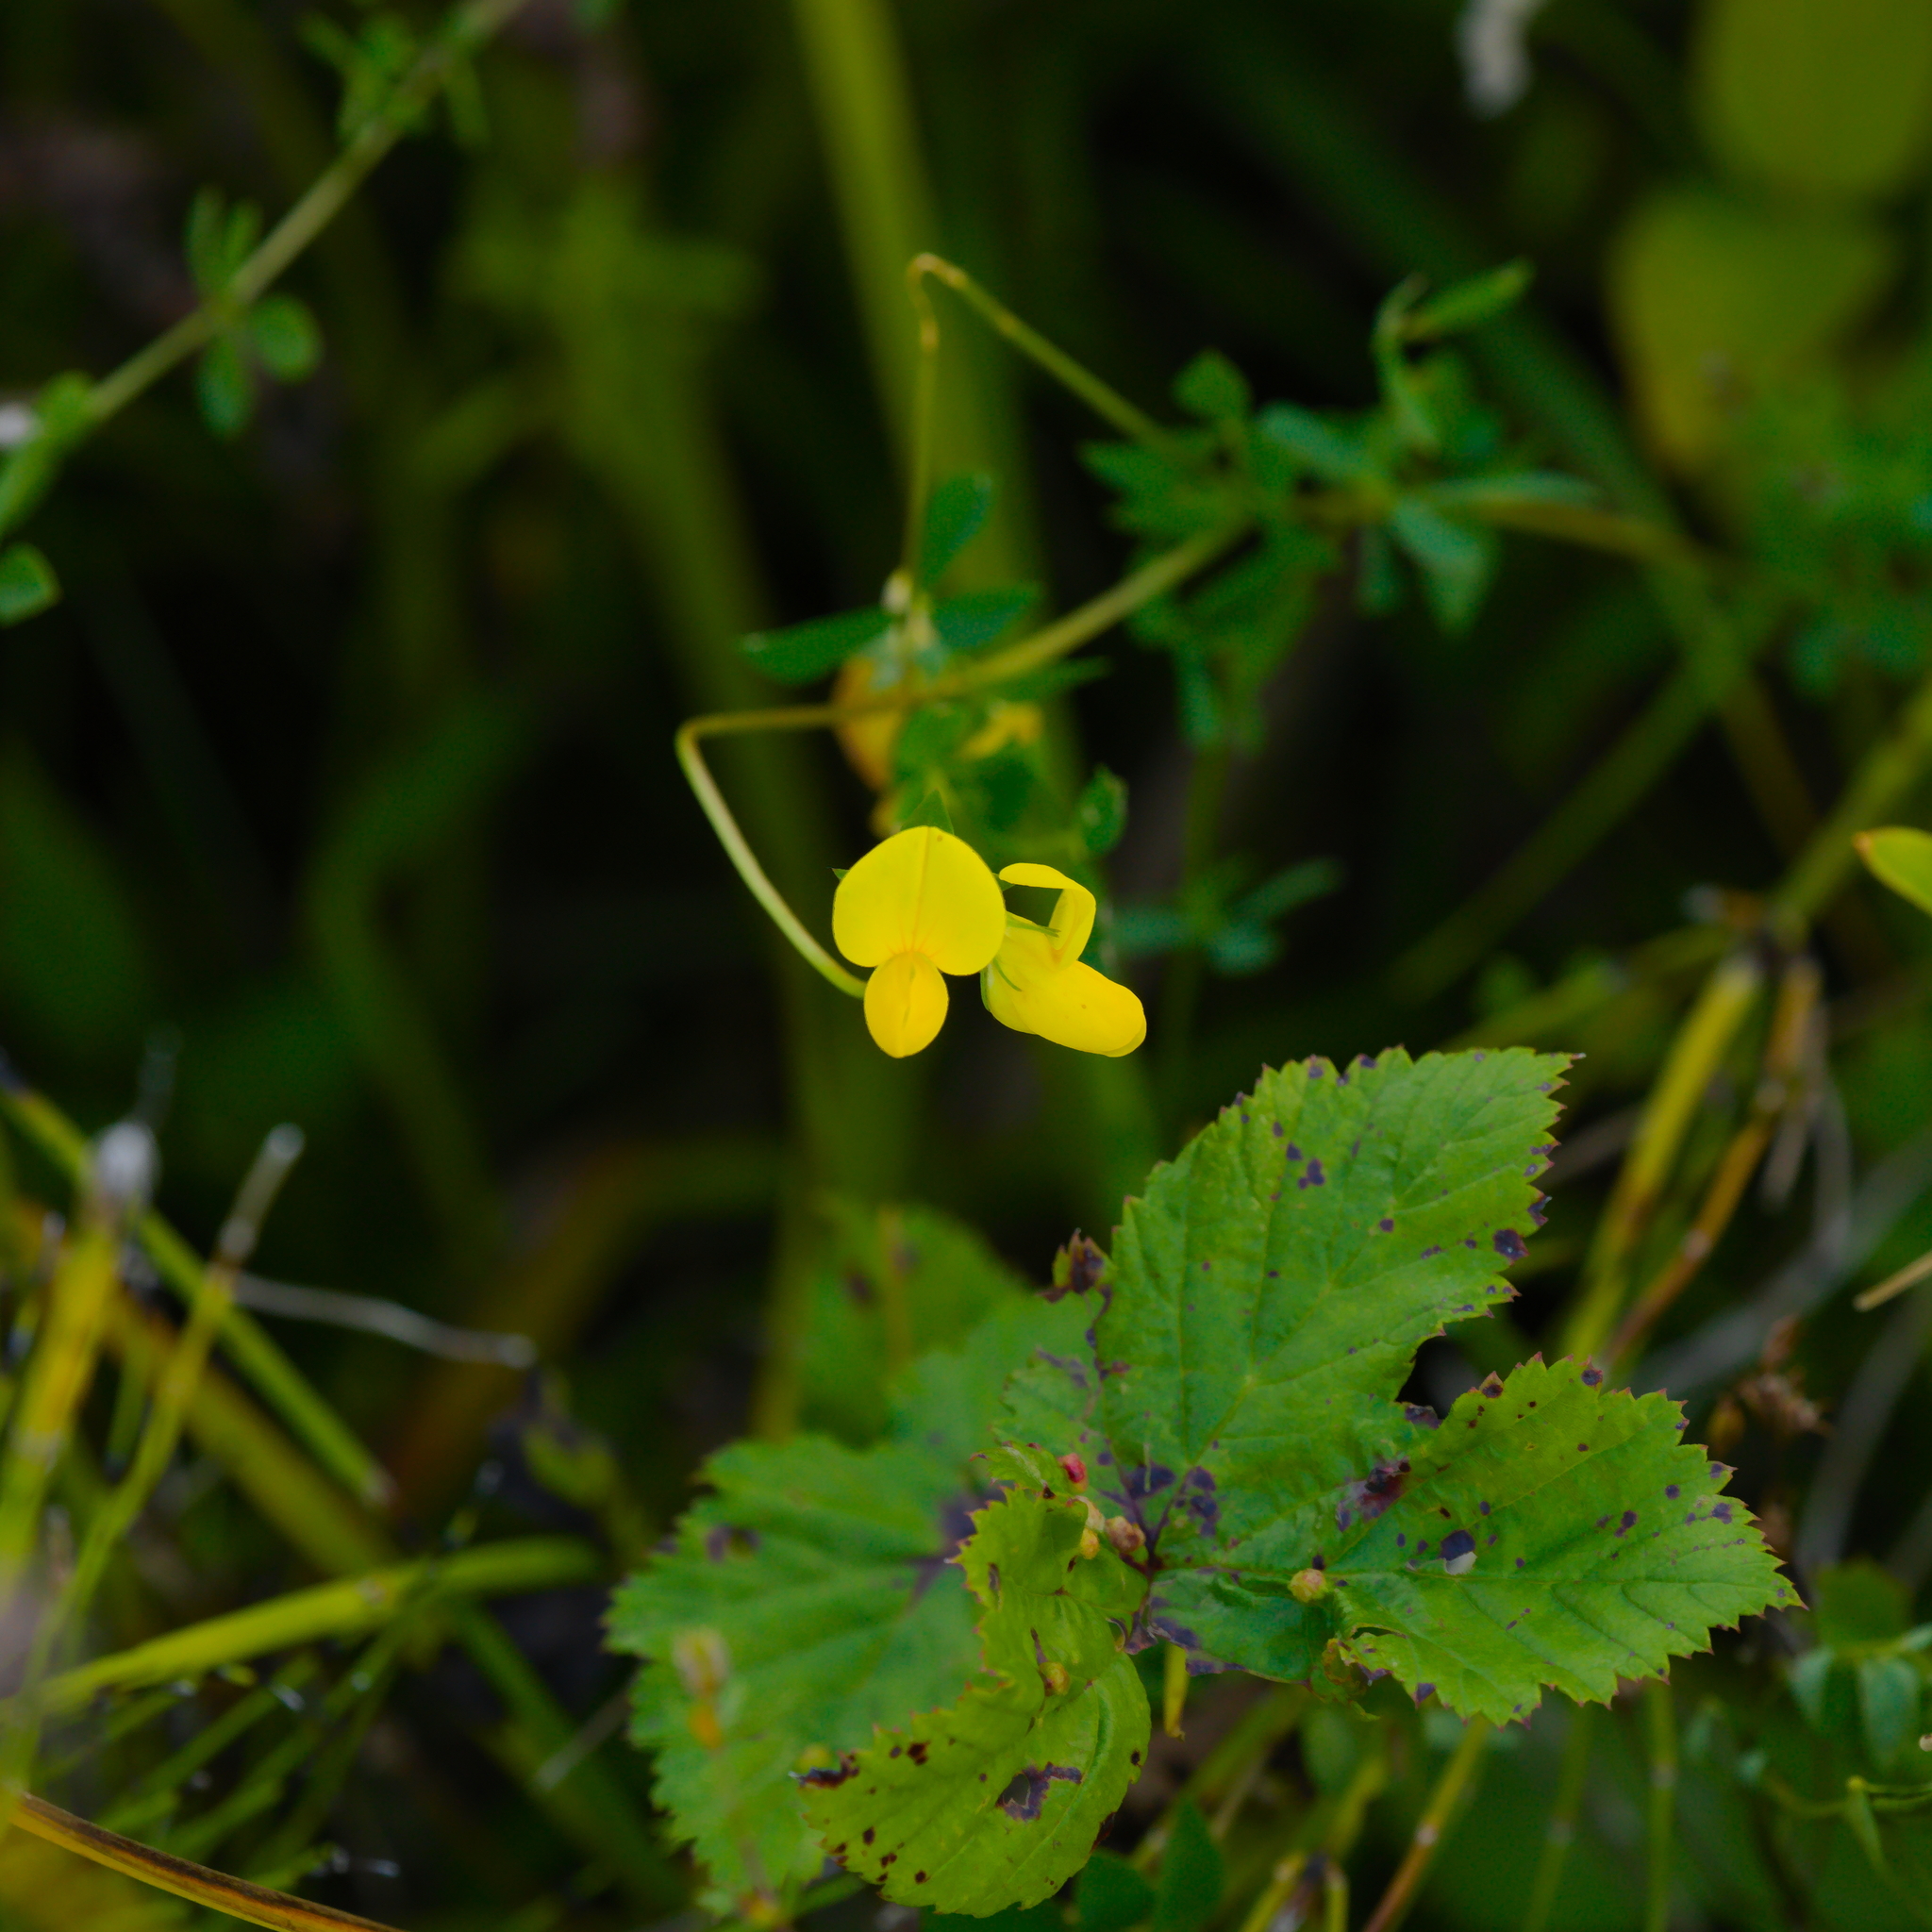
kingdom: Plantae
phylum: Tracheophyta
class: Magnoliopsida
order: Fabales
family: Fabaceae
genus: Lotus
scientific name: Lotus corniculatus
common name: Common bird's-foot-trefoil
